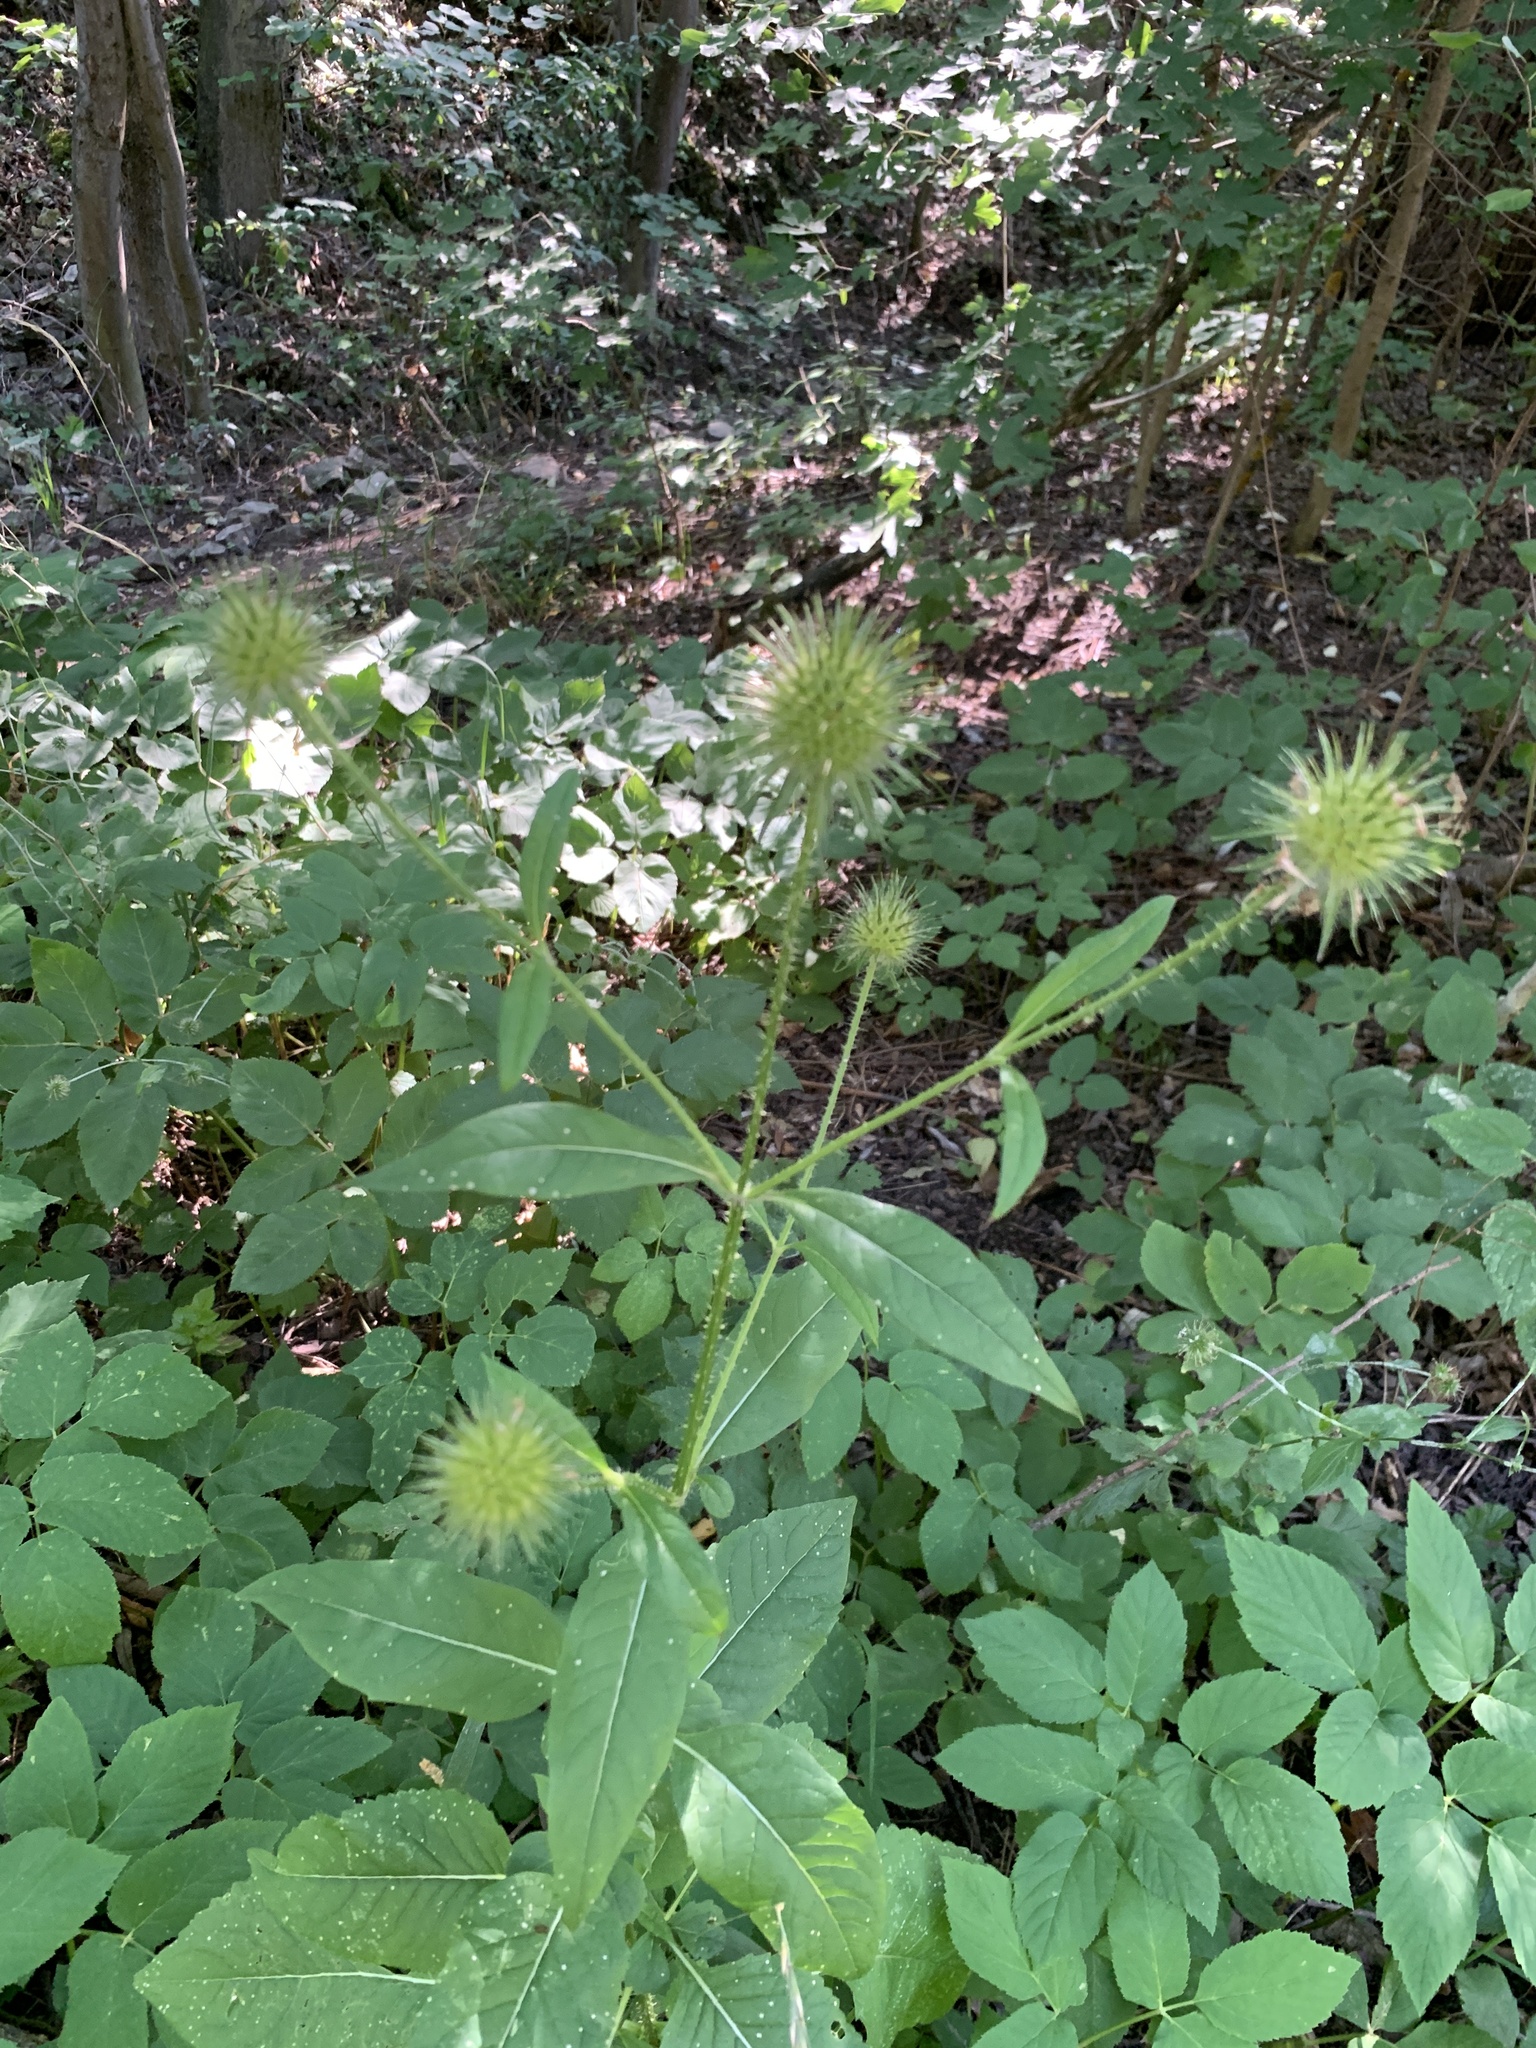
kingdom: Plantae
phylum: Tracheophyta
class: Magnoliopsida
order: Dipsacales
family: Caprifoliaceae
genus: Dipsacus
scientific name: Dipsacus strigosus
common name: Yellow-flowered teasel
